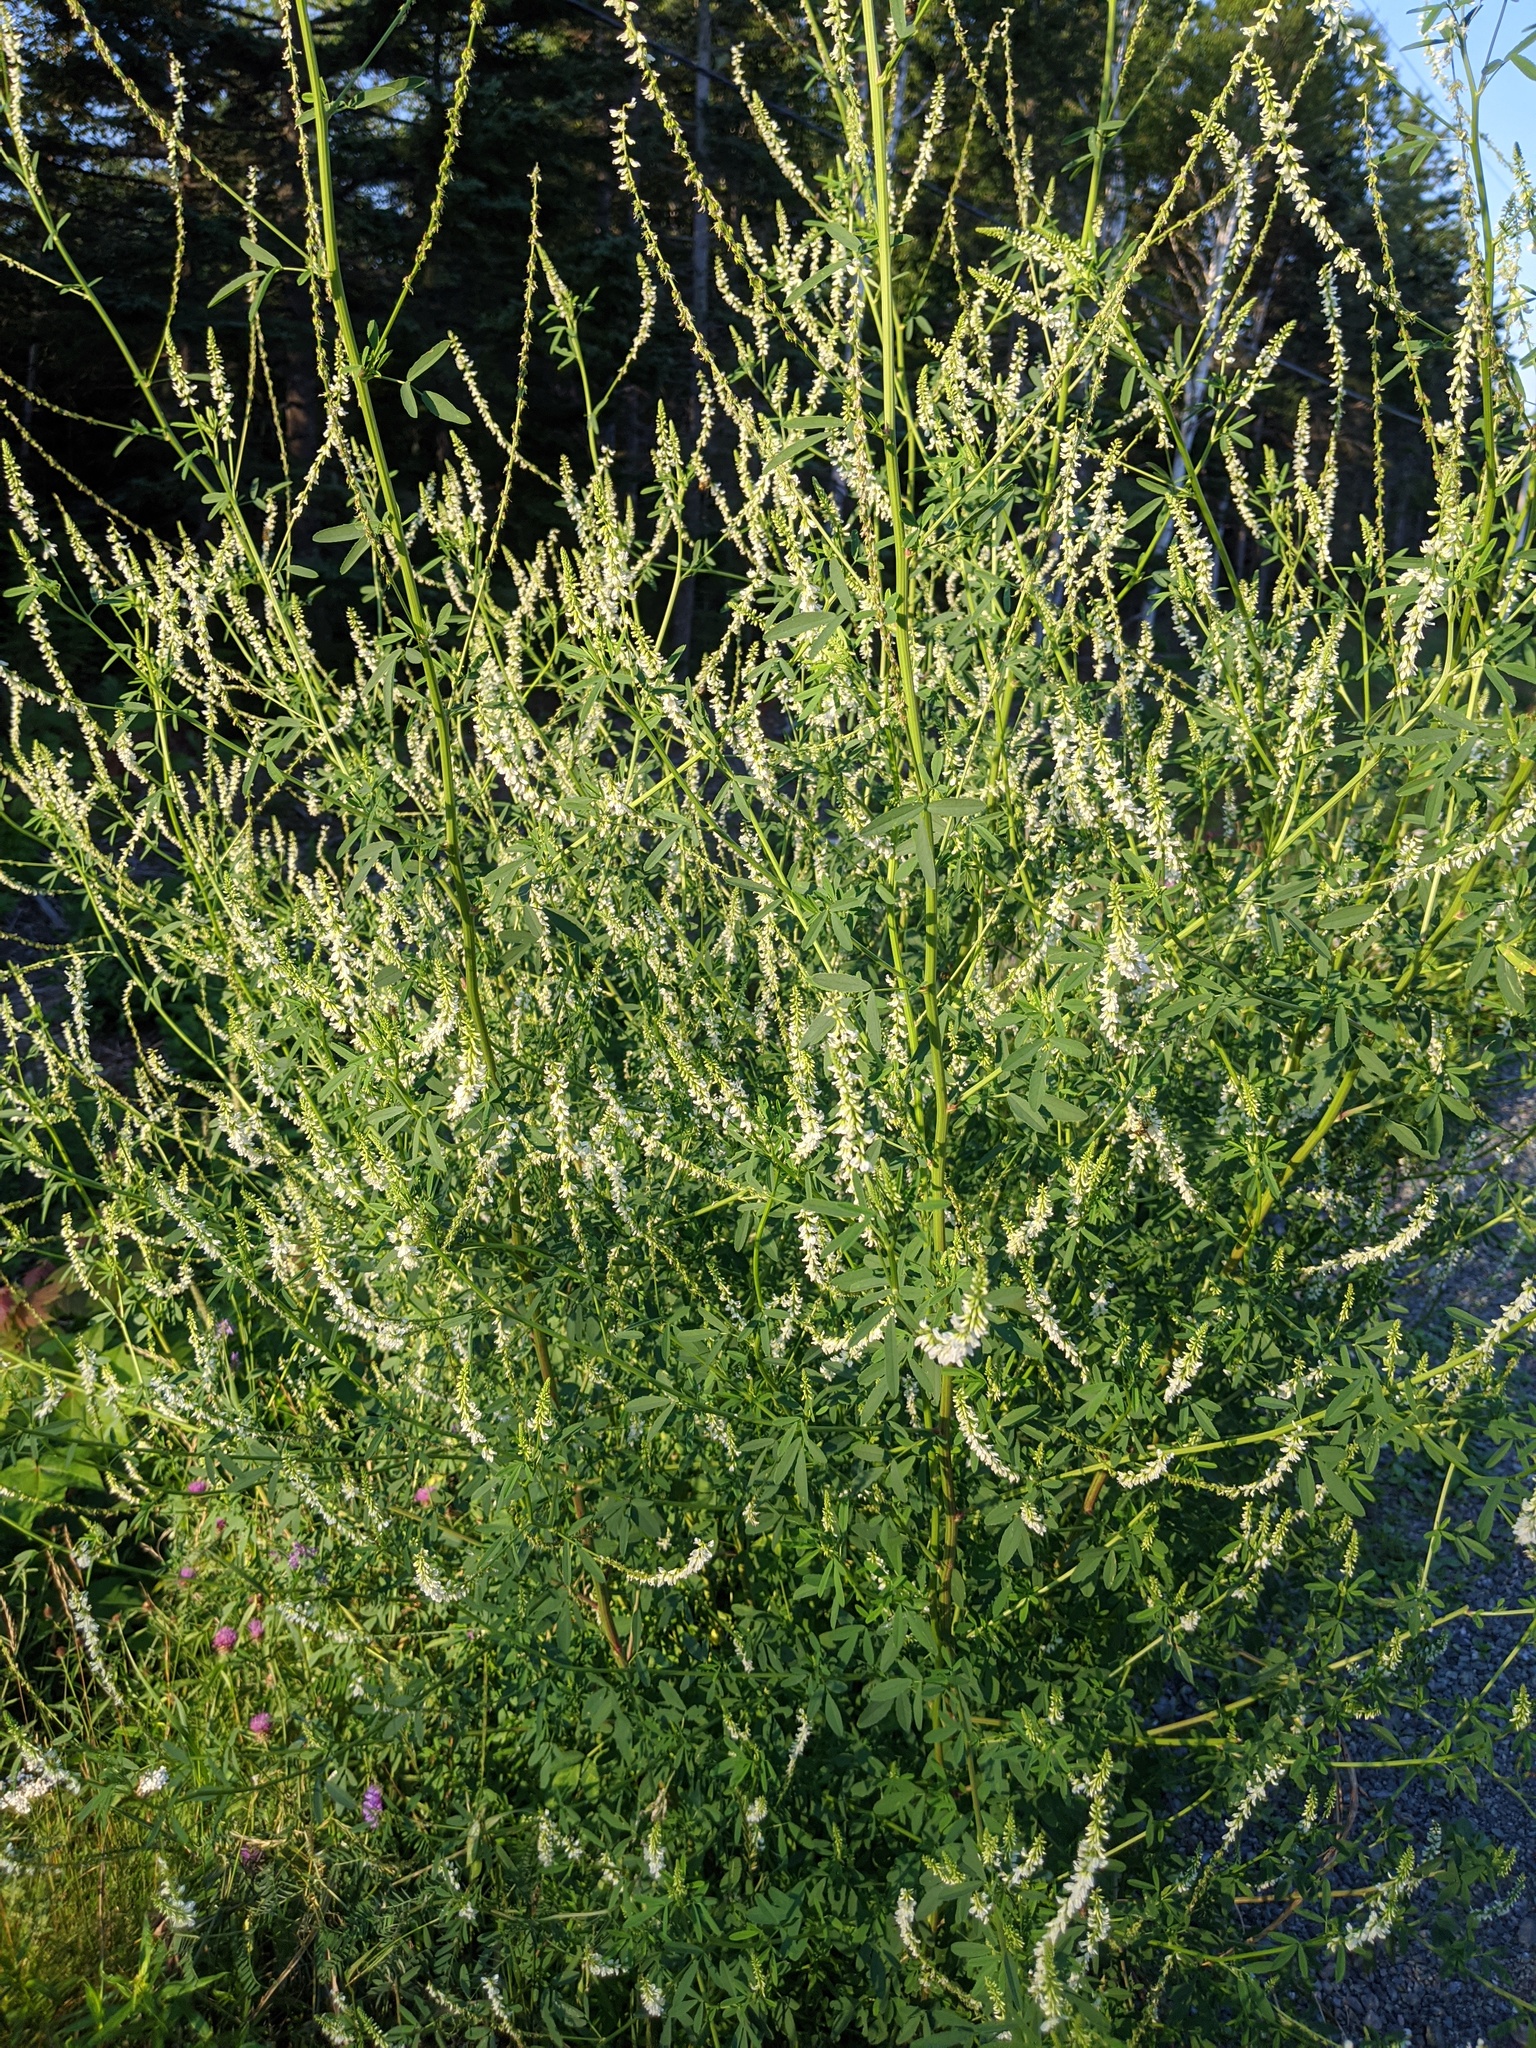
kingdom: Plantae
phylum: Tracheophyta
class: Magnoliopsida
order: Fabales
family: Fabaceae
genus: Melilotus
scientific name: Melilotus albus
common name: White melilot
